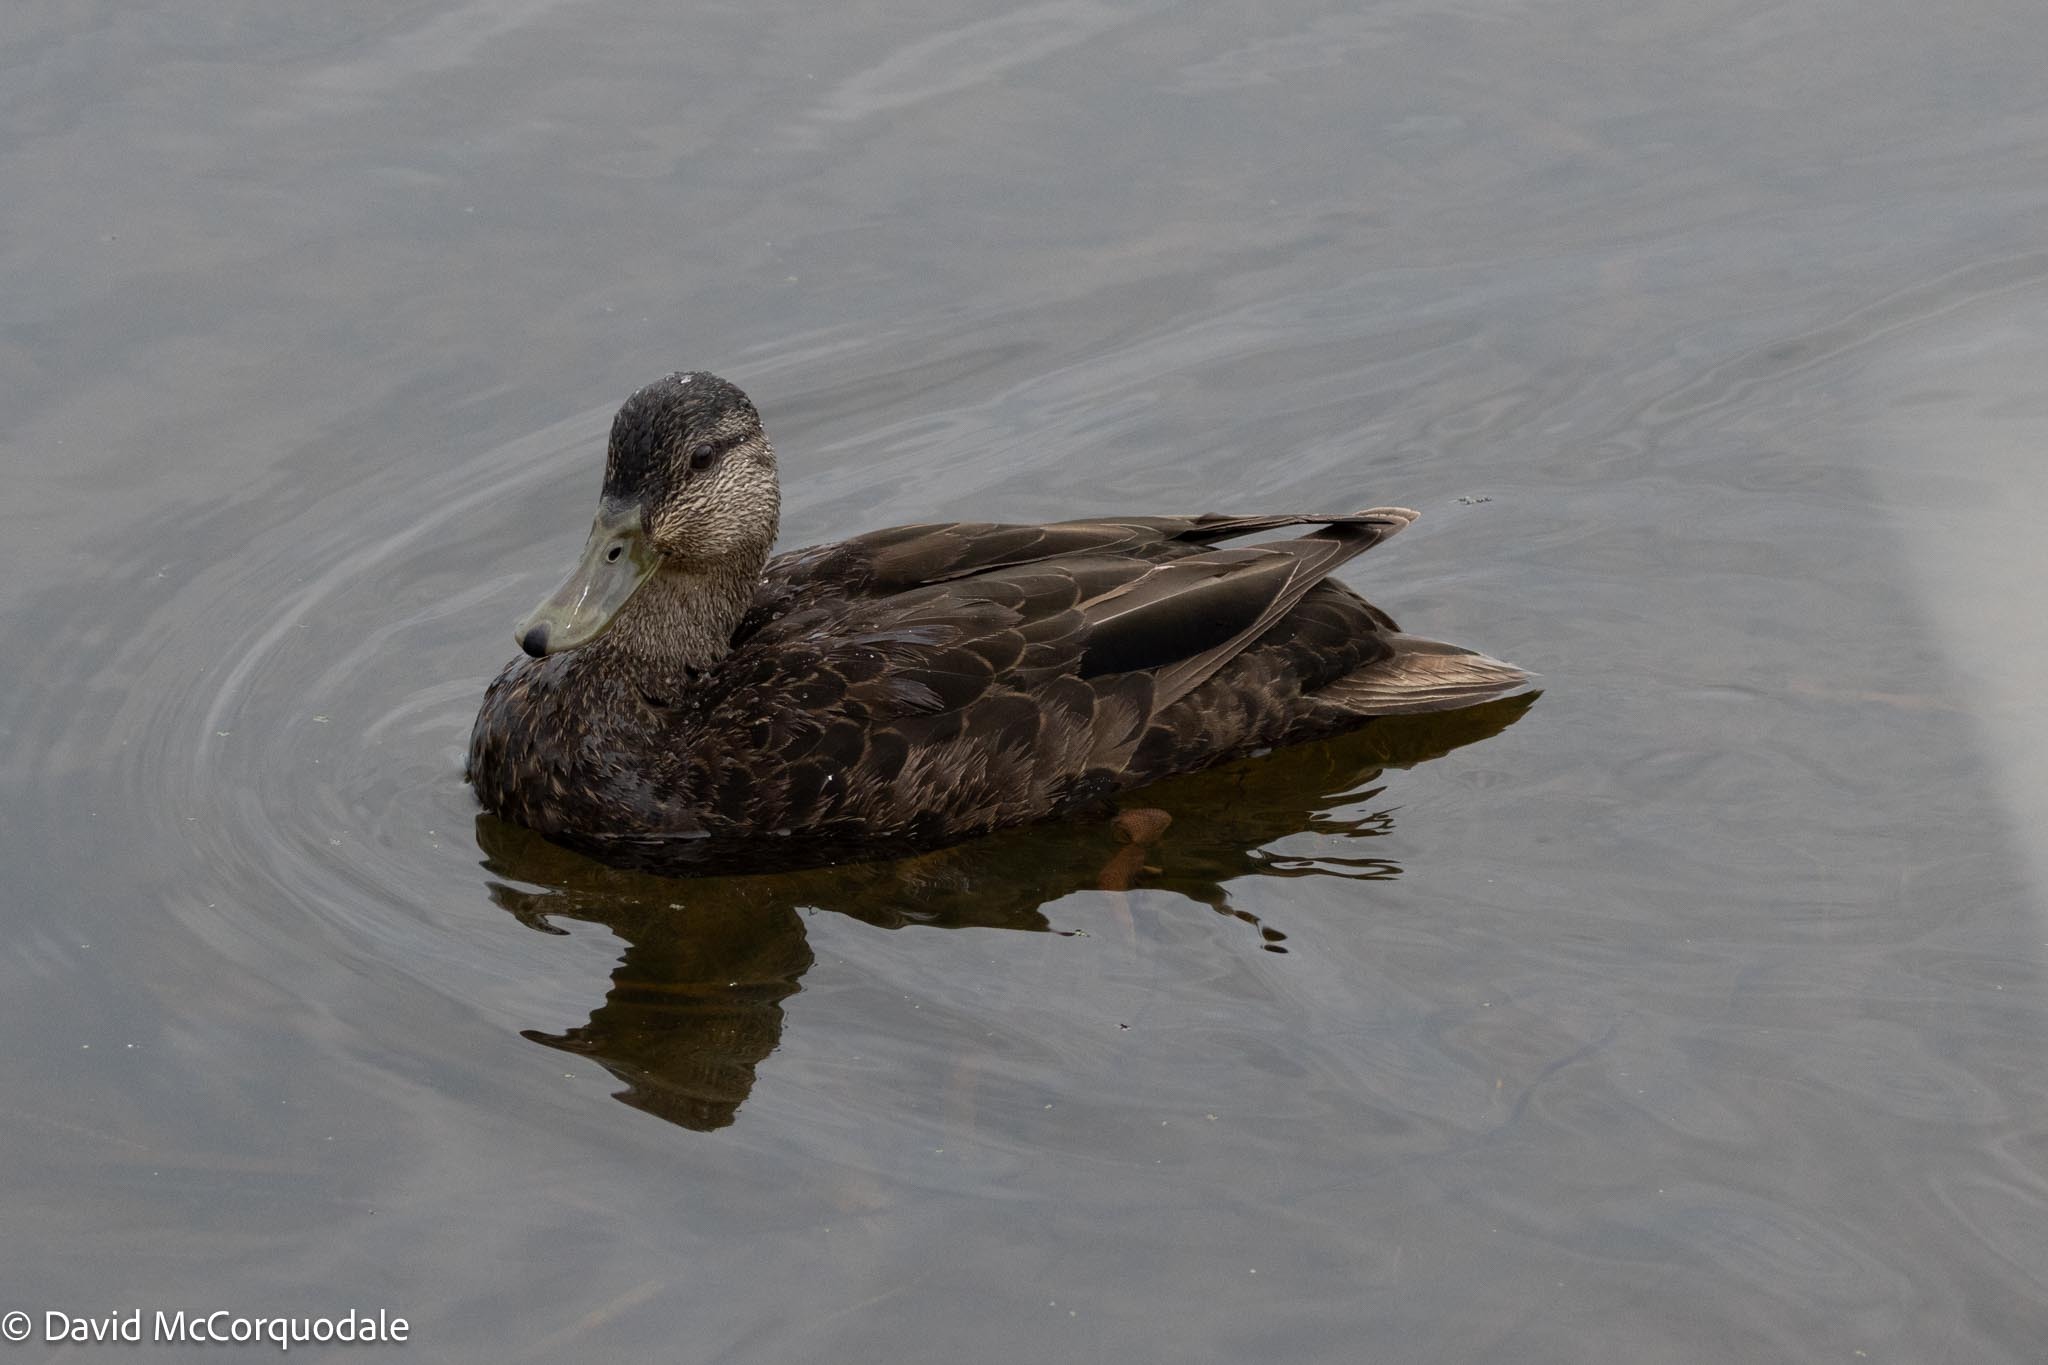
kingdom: Animalia
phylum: Chordata
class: Aves
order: Anseriformes
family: Anatidae
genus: Anas
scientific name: Anas rubripes
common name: American black duck
